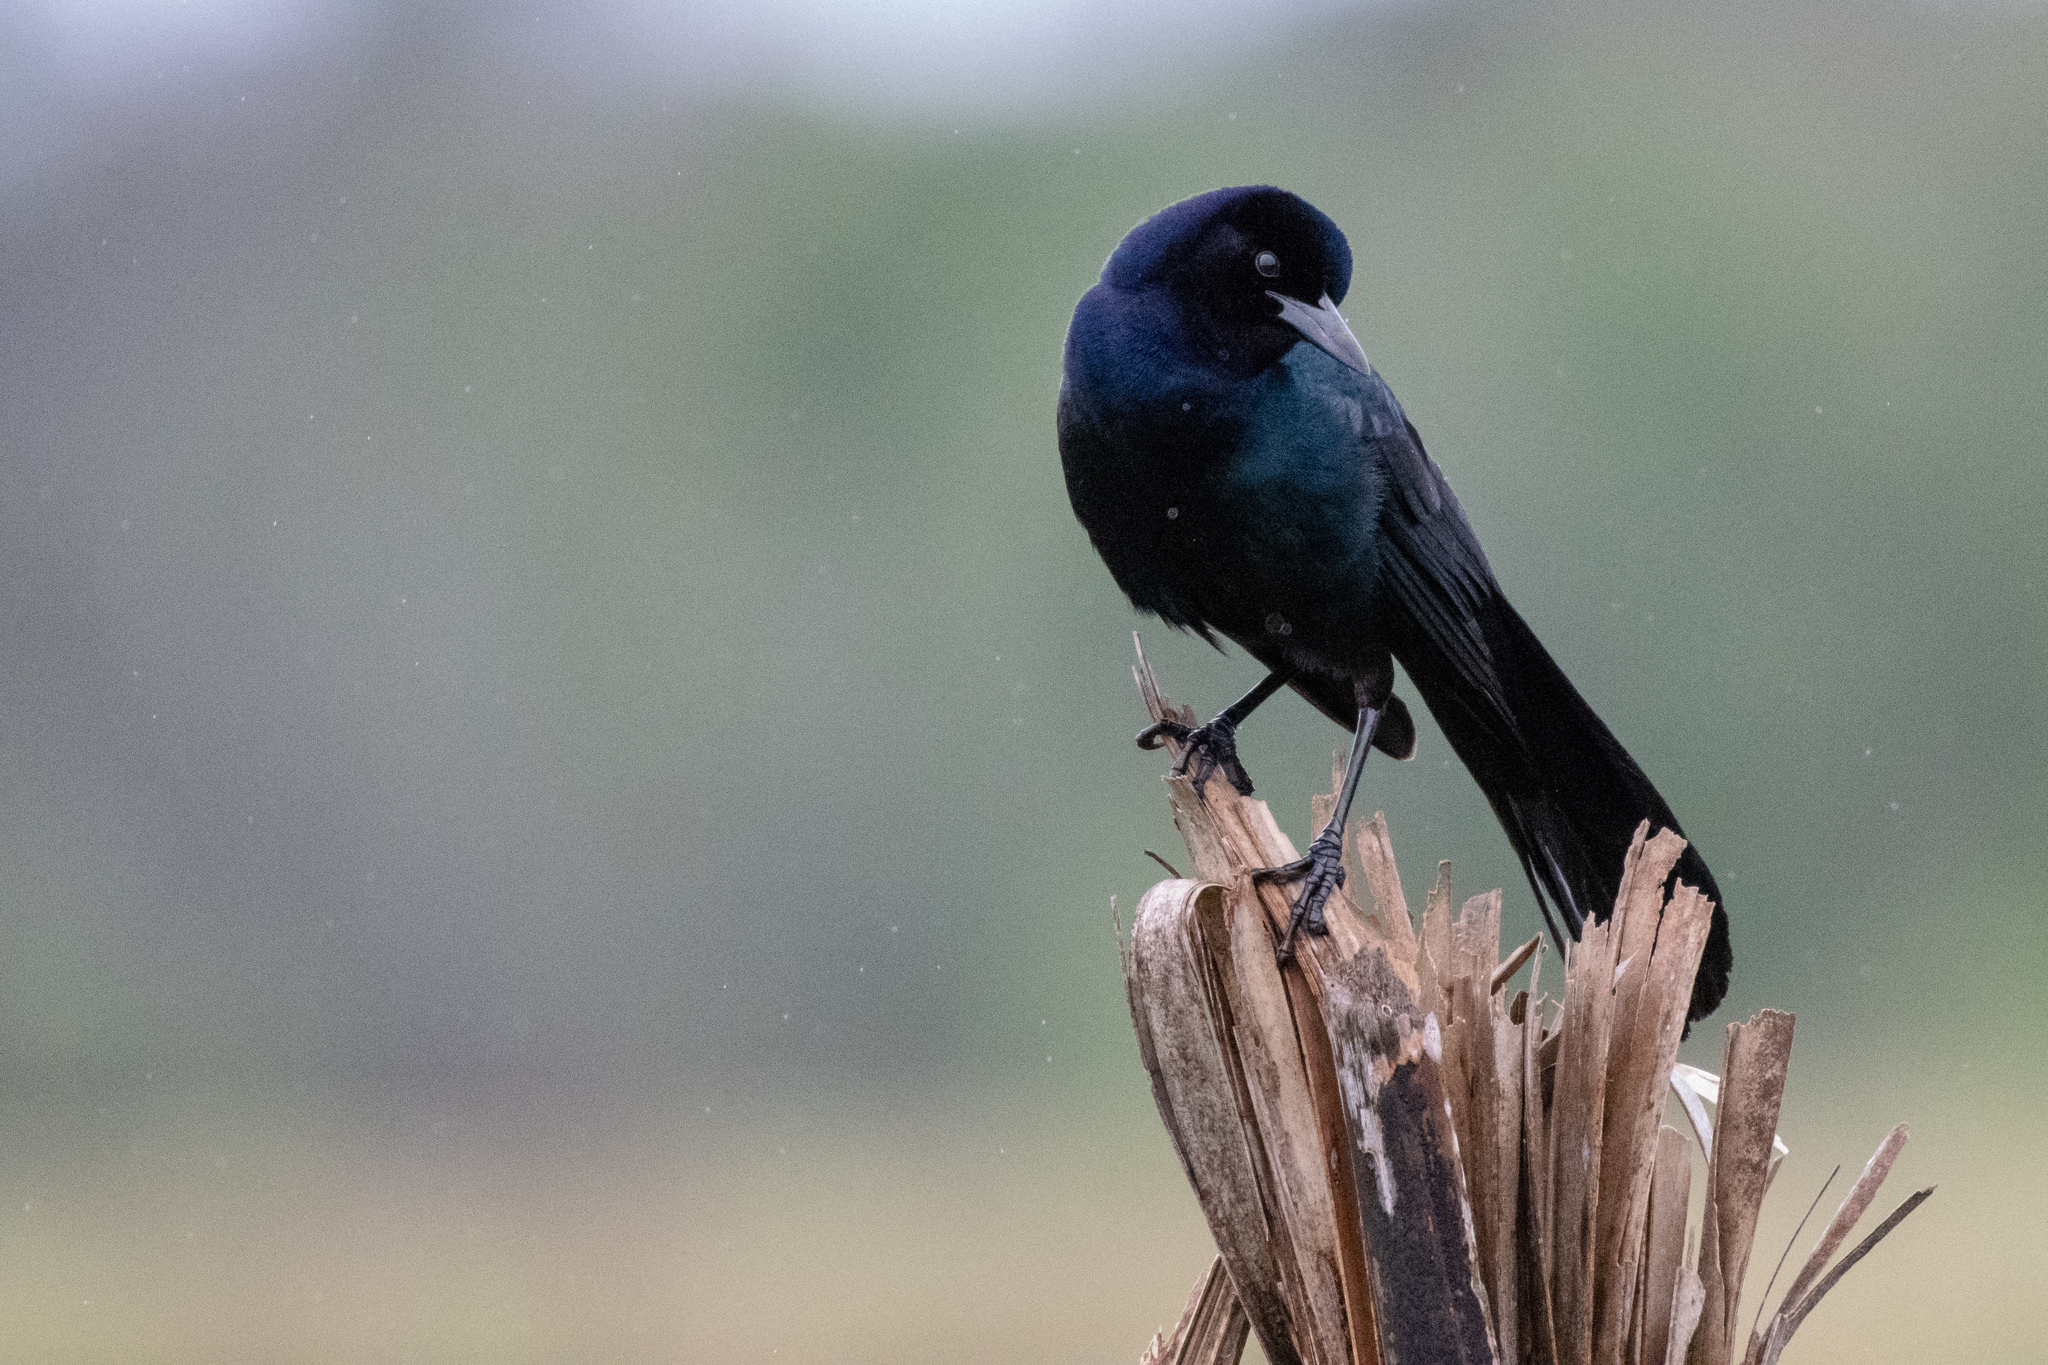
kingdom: Animalia
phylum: Chordata
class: Aves
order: Passeriformes
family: Icteridae
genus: Quiscalus
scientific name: Quiscalus major
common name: Boat-tailed grackle
